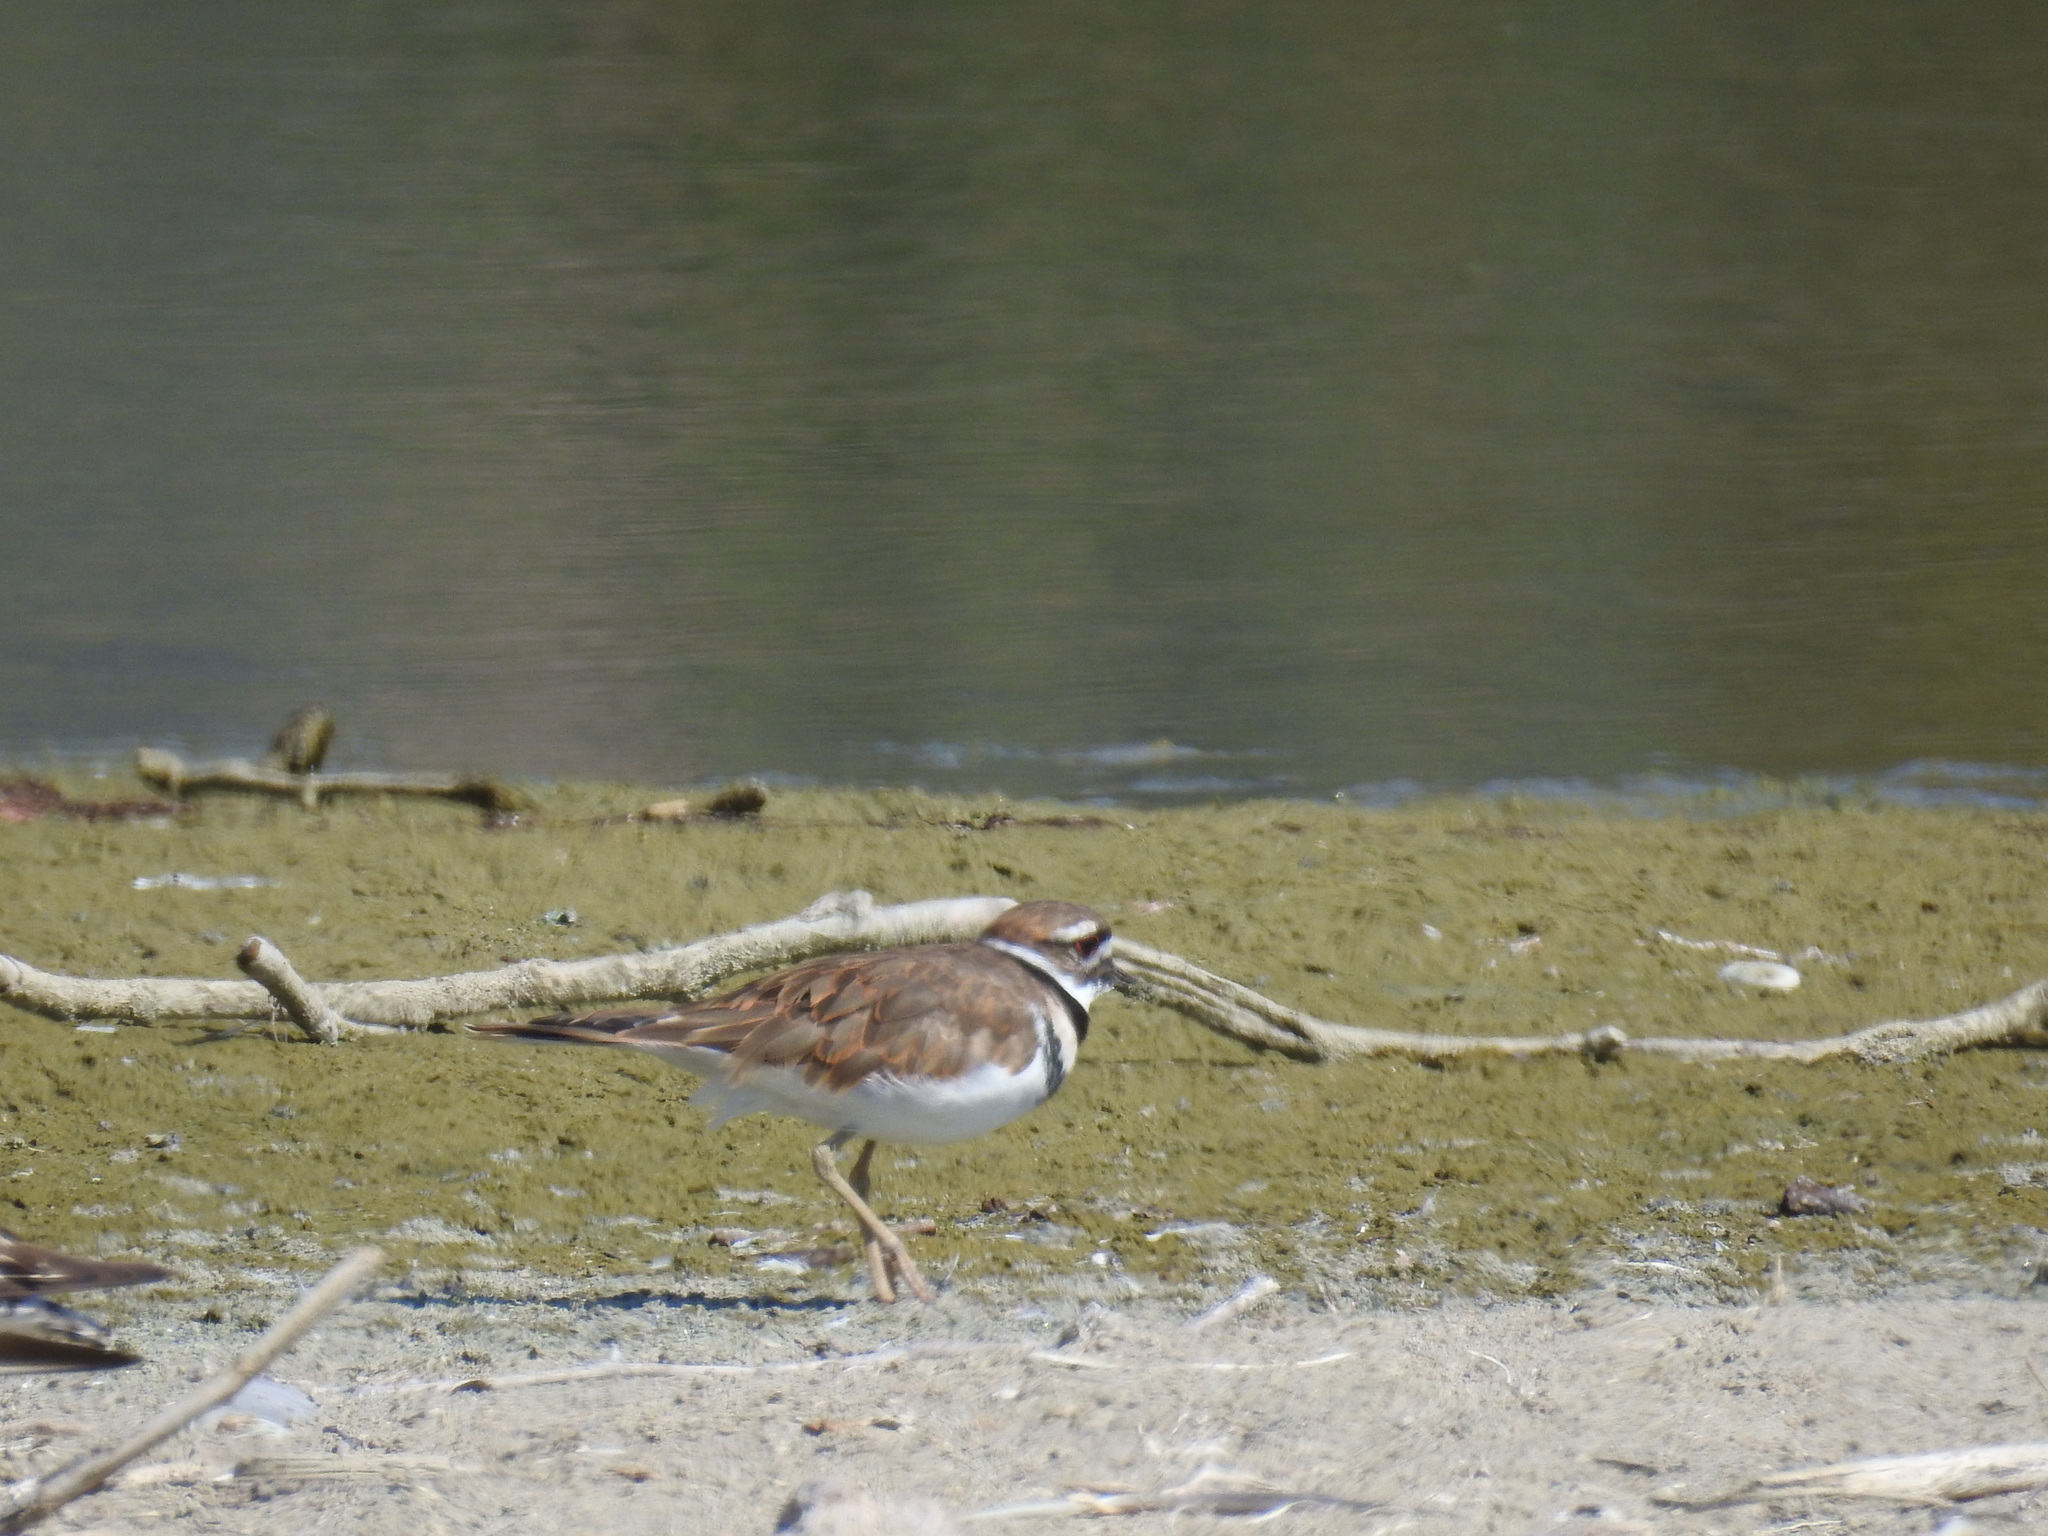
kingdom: Animalia
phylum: Chordata
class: Aves
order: Charadriiformes
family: Charadriidae
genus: Charadrius
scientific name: Charadrius vociferus
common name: Killdeer
